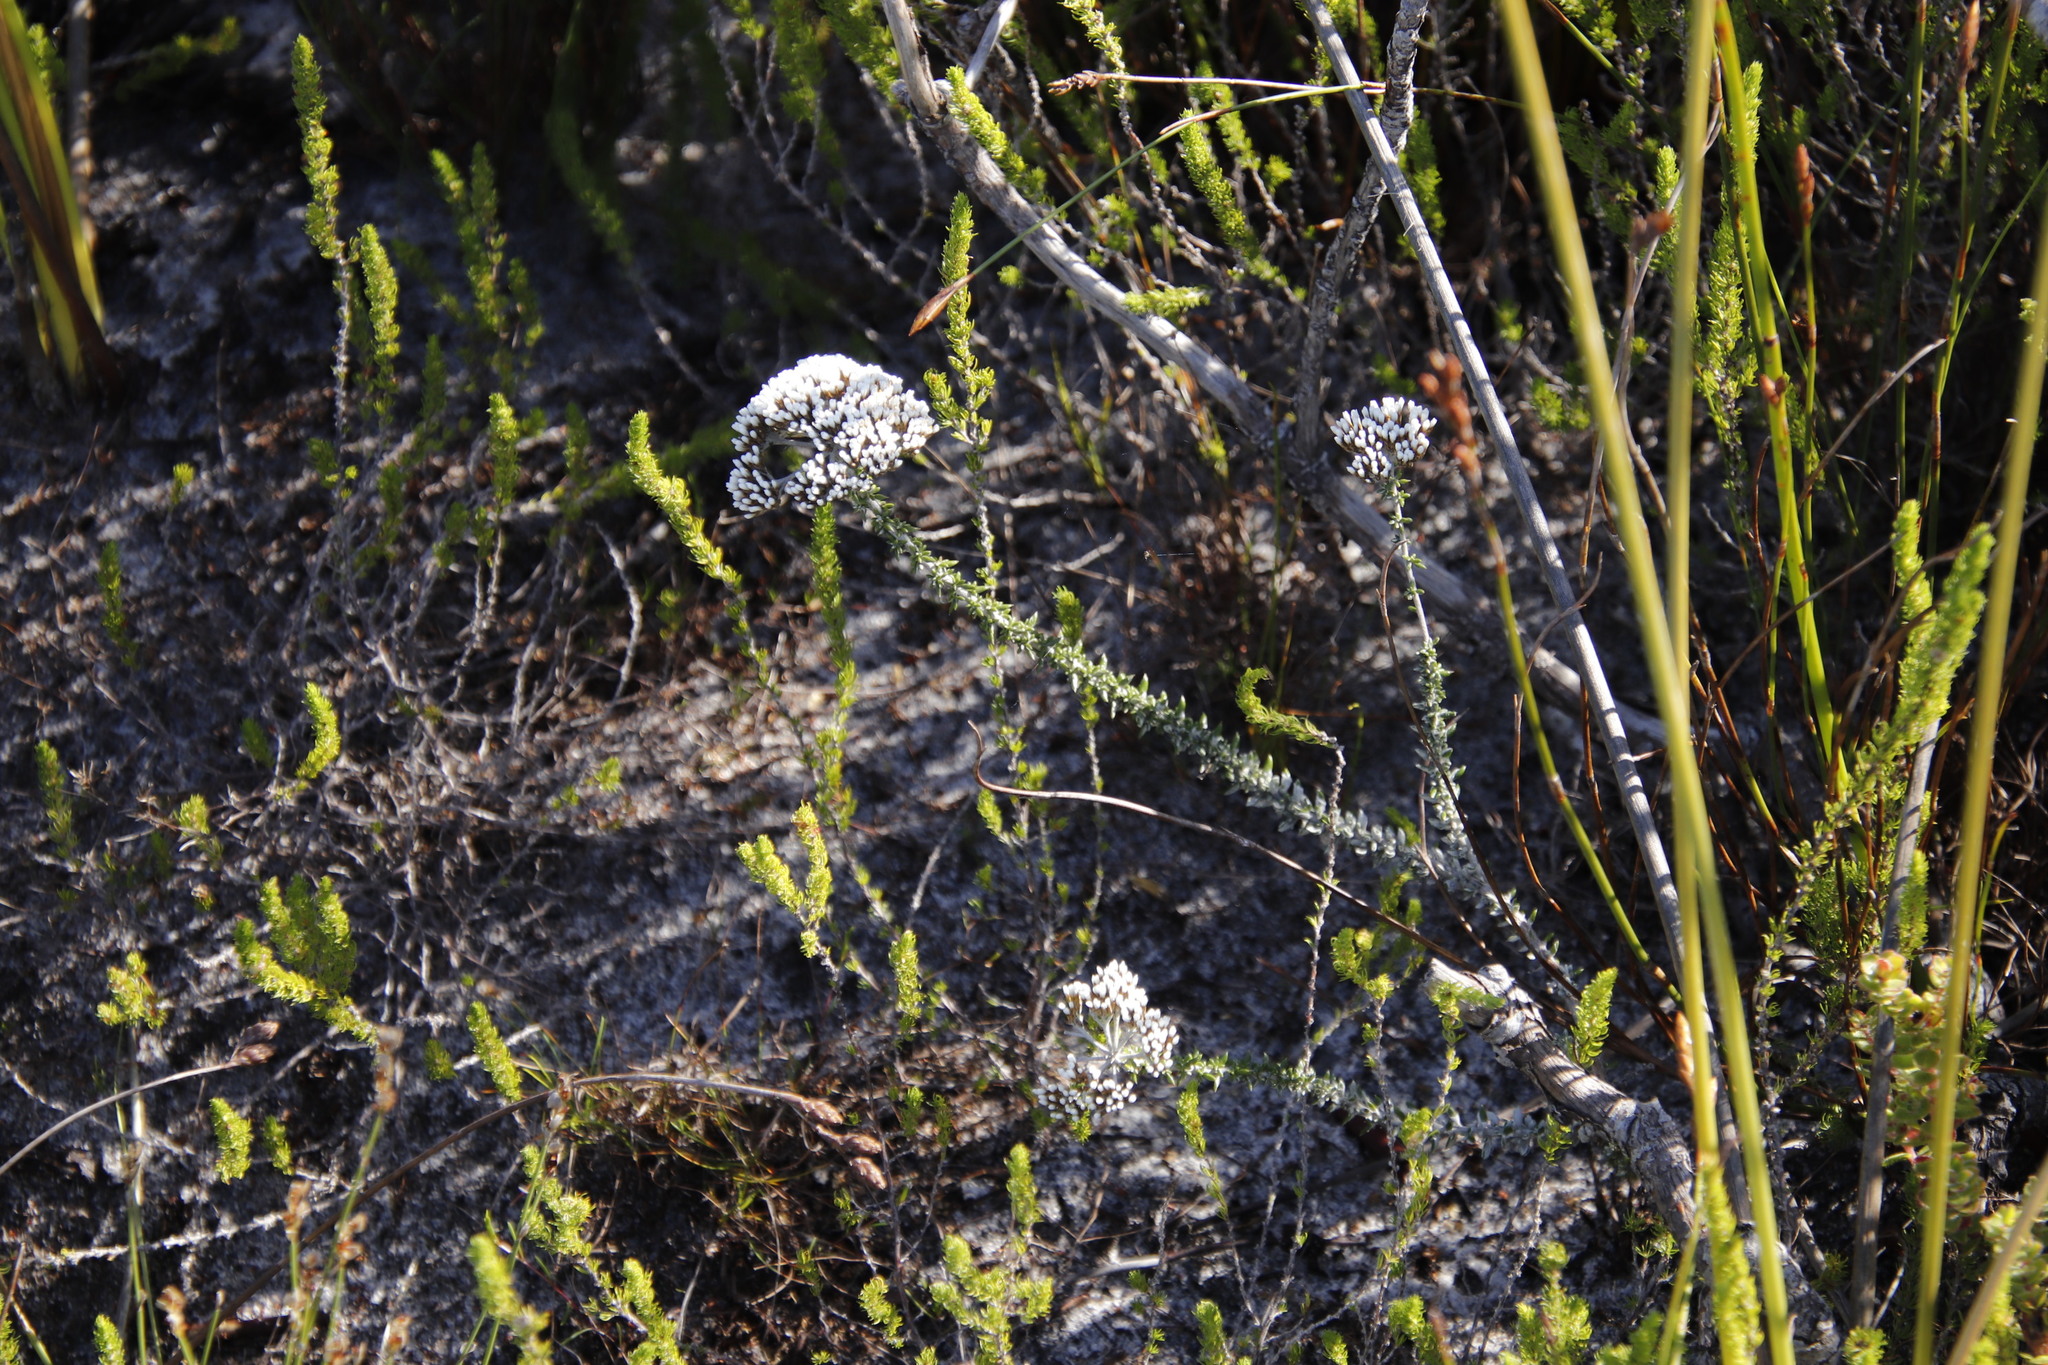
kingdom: Plantae
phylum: Tracheophyta
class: Magnoliopsida
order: Asterales
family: Asteraceae
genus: Metalasia
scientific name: Metalasia densa
